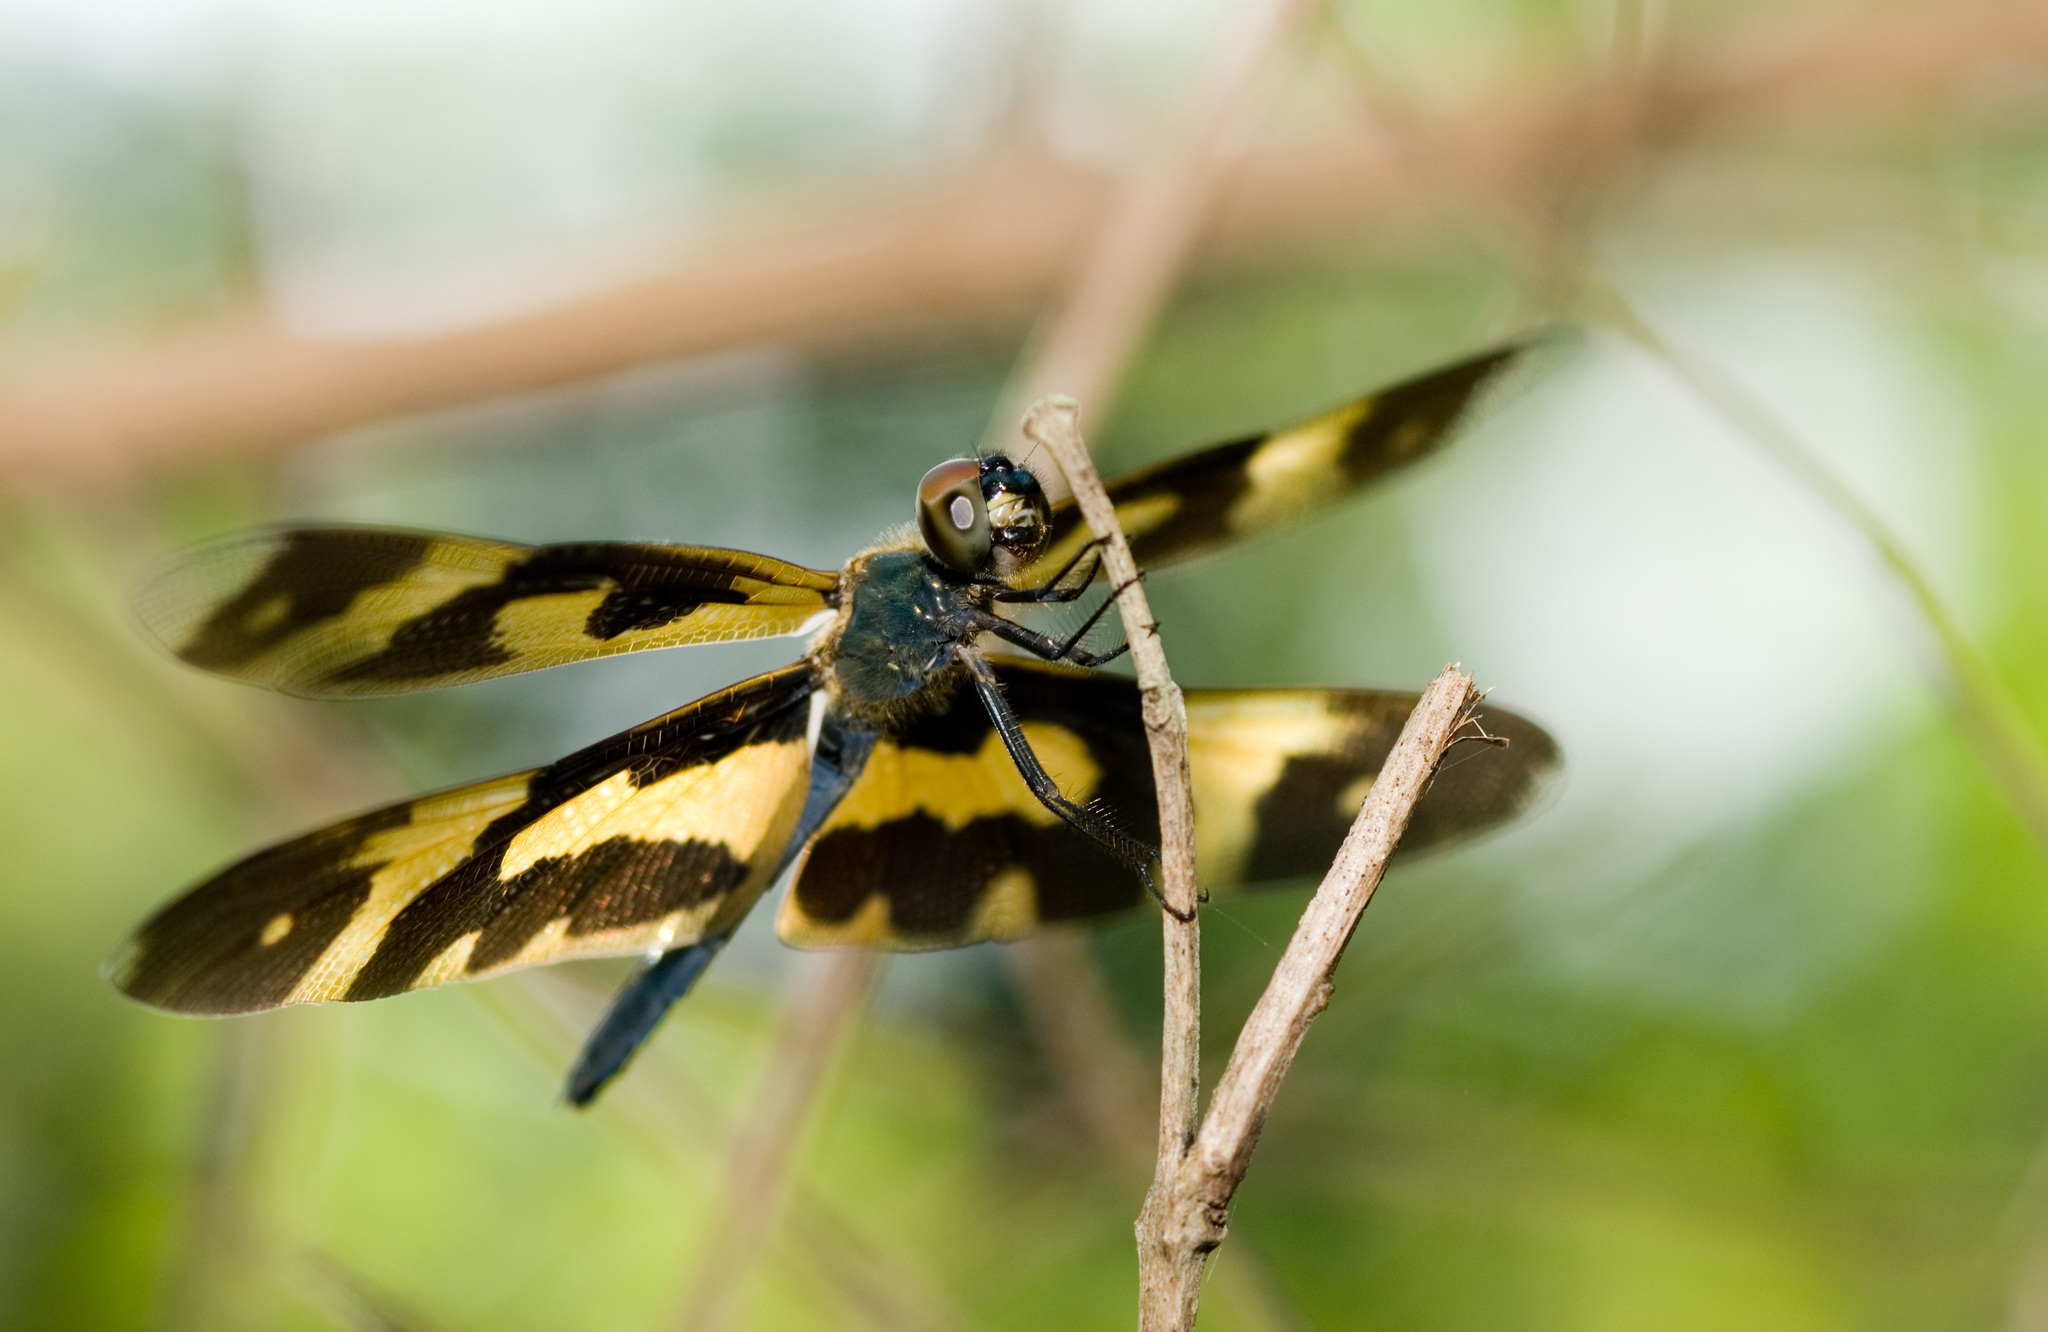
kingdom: Animalia
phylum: Arthropoda
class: Insecta
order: Odonata
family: Libellulidae
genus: Rhyothemis
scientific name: Rhyothemis variegata
